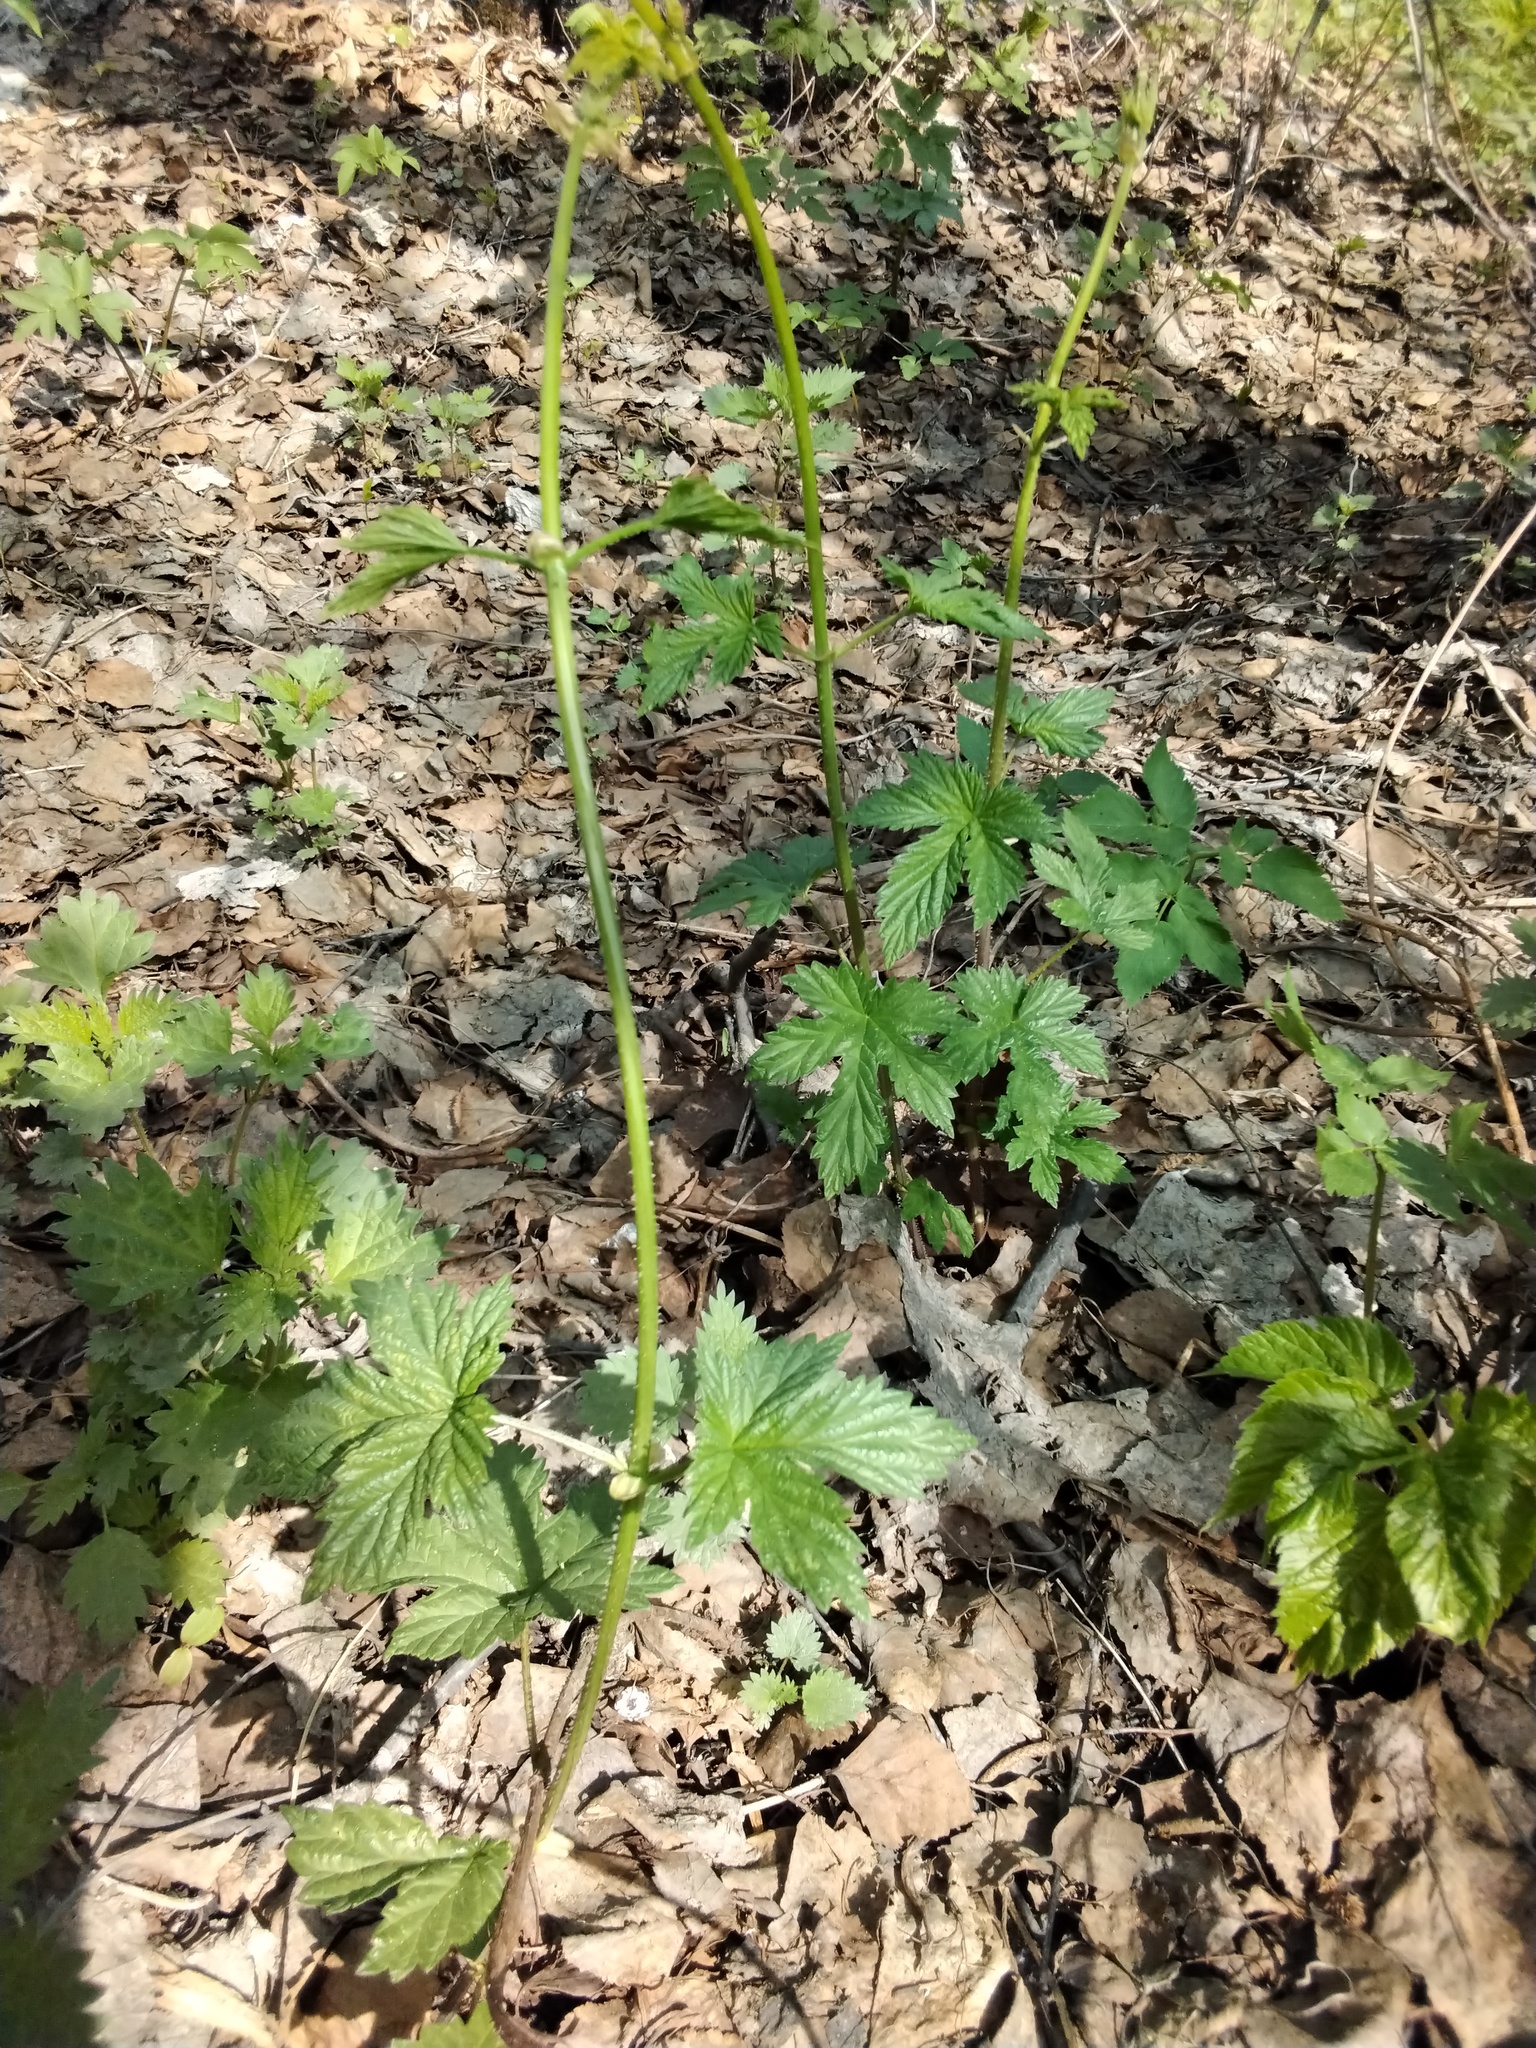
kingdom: Plantae
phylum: Tracheophyta
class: Magnoliopsida
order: Rosales
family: Cannabaceae
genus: Humulus
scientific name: Humulus lupulus
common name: Hop
